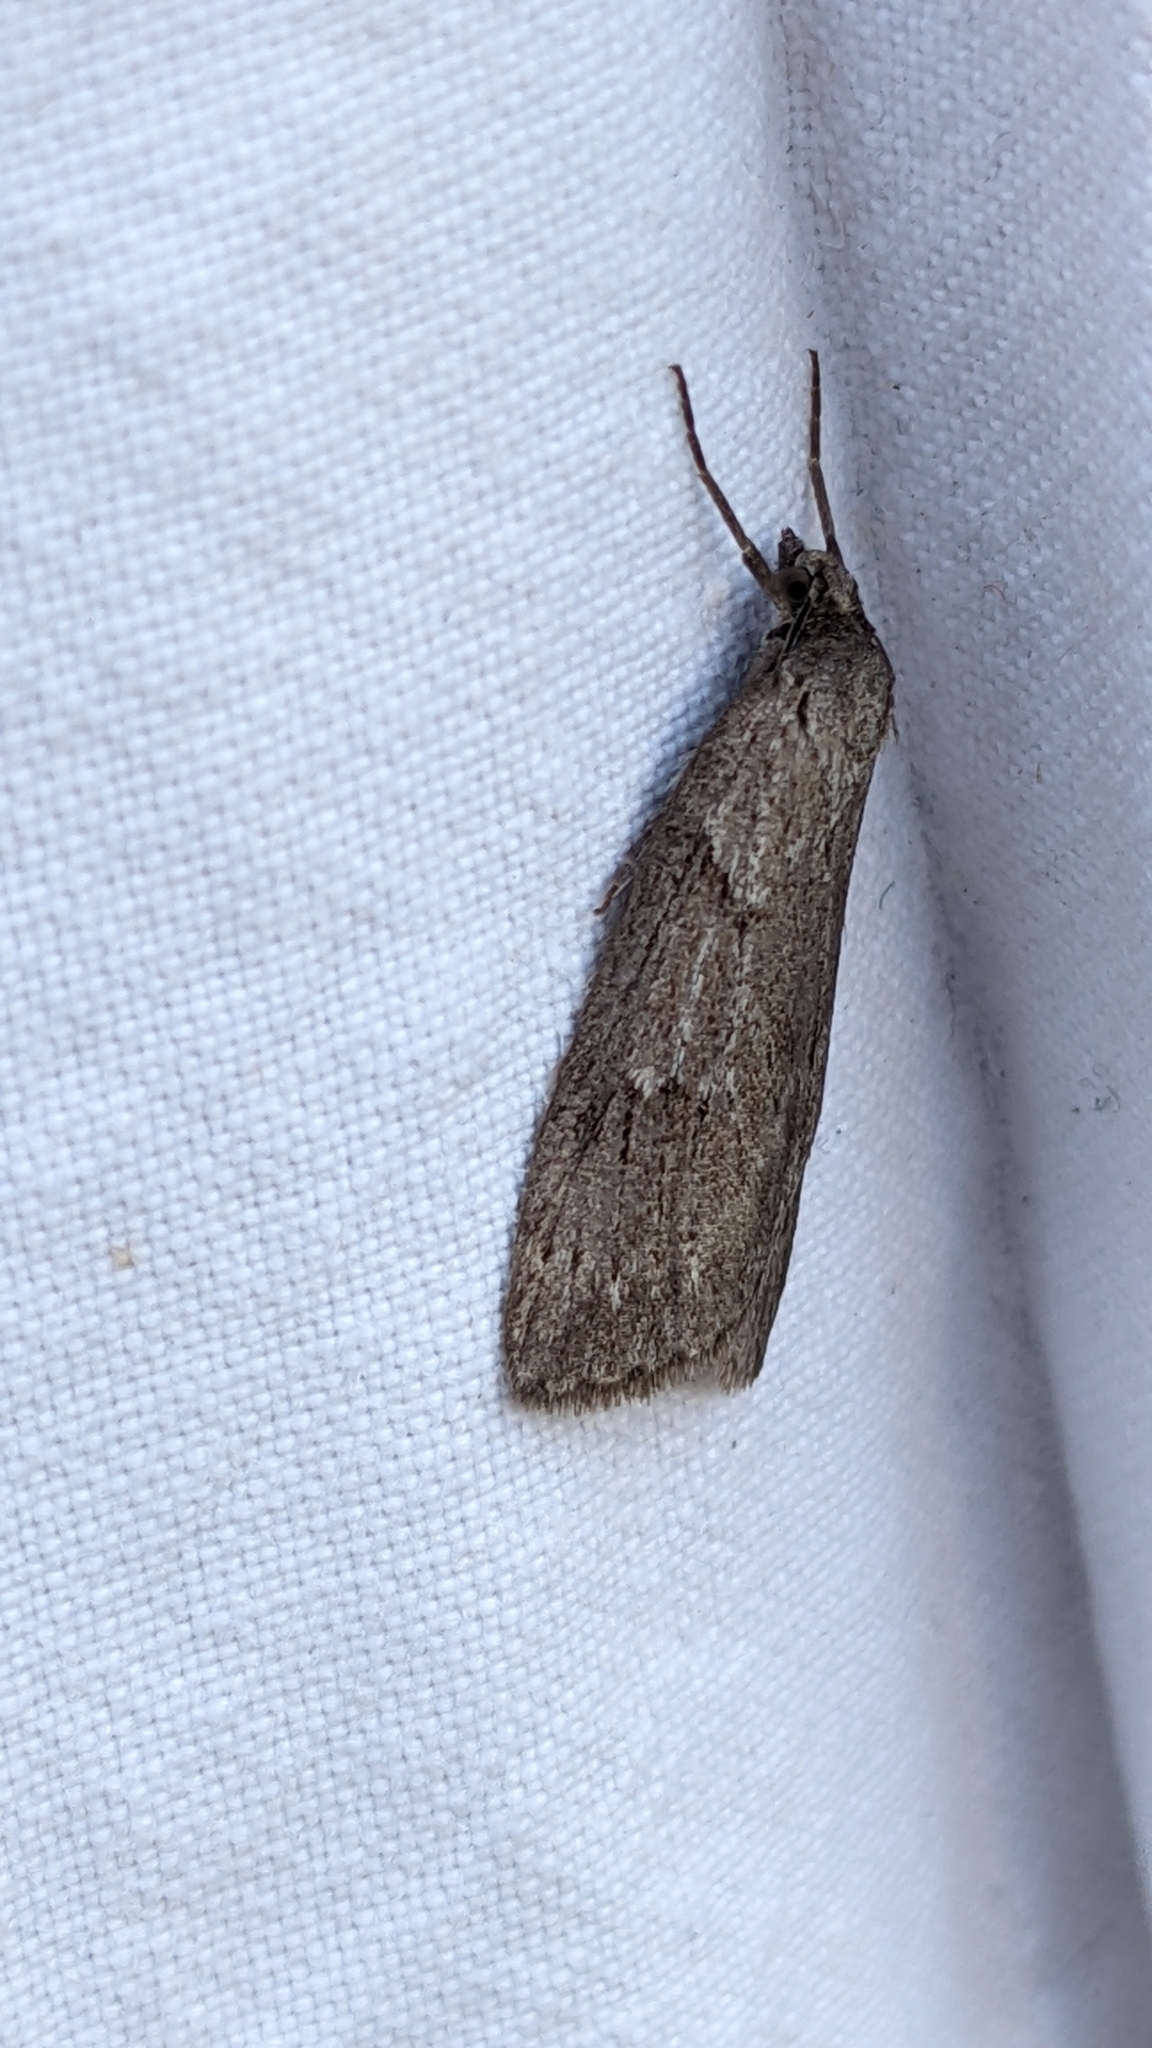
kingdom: Animalia
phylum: Arthropoda
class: Insecta
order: Lepidoptera
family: Geometridae
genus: Pachycnemia
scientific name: Pachycnemia hippocastanaria
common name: Horse chestnut
